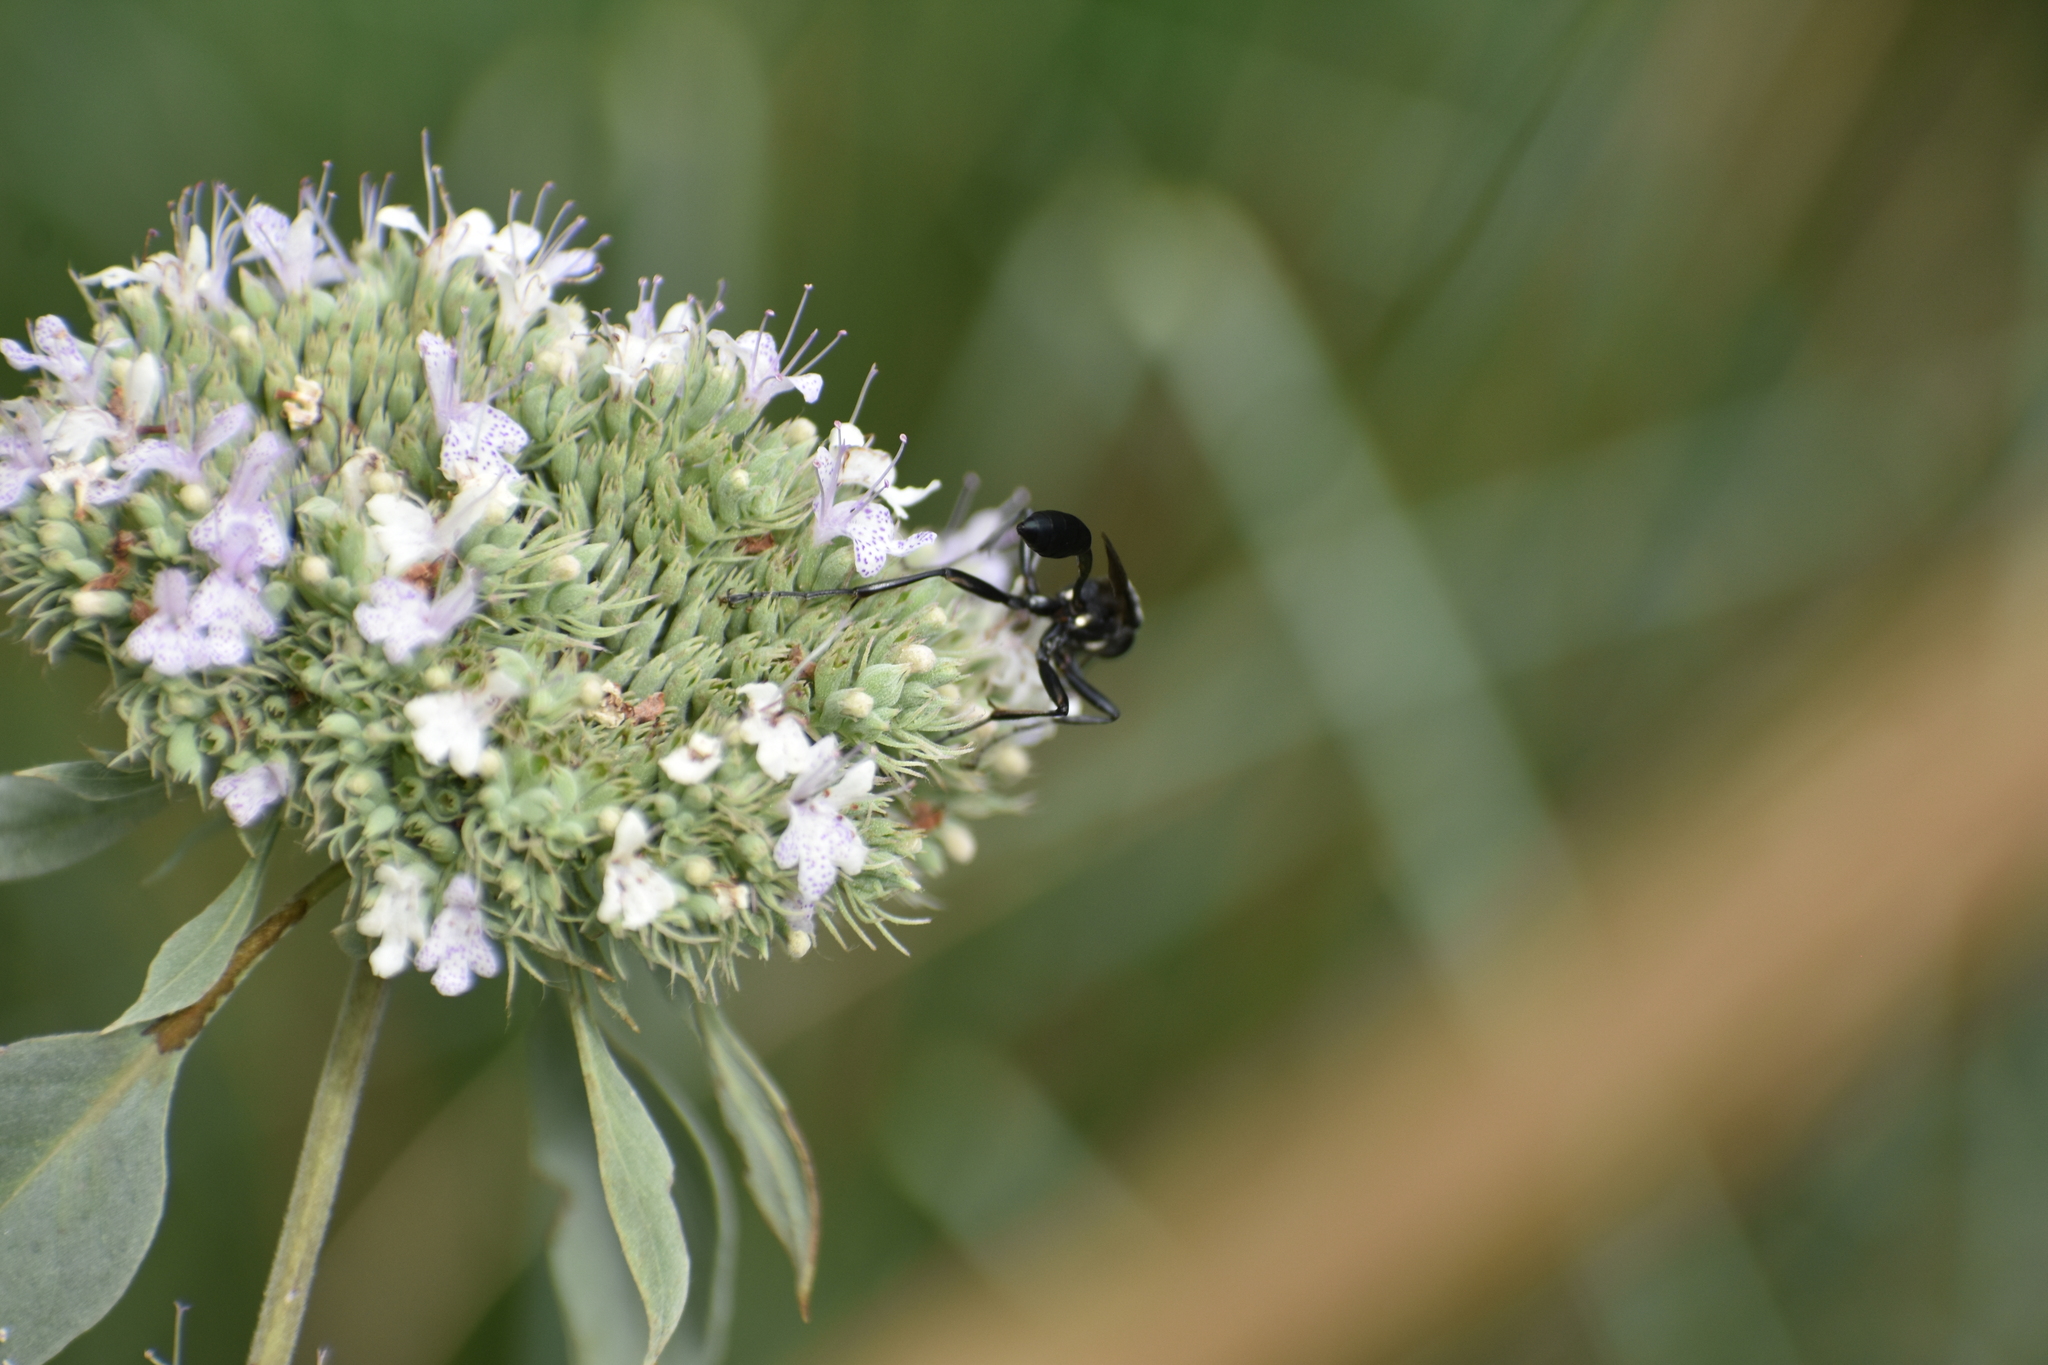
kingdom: Animalia
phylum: Arthropoda
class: Insecta
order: Hymenoptera
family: Sphecidae
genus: Eremnophila
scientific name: Eremnophila aureonotata
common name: Gold-marked thread-waisted wasp
